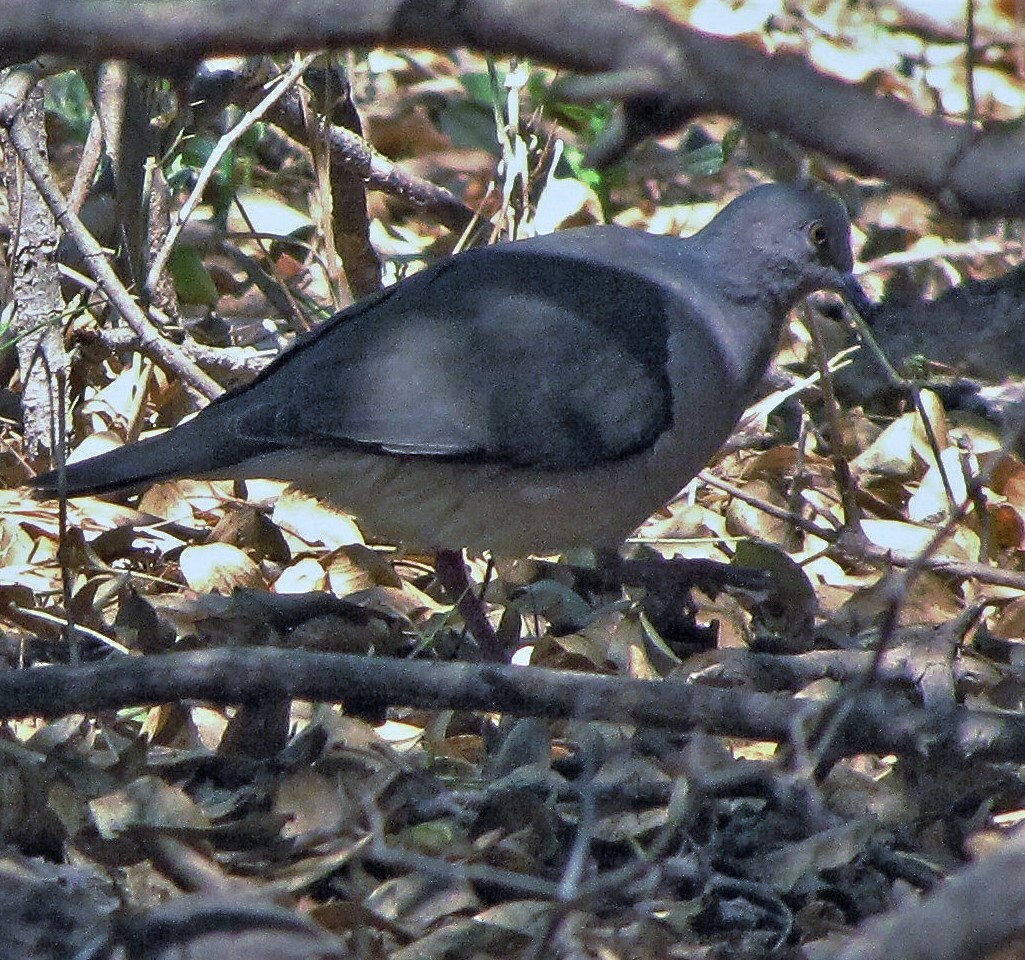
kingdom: Animalia
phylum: Chordata
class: Aves
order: Columbiformes
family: Columbidae
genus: Leptotila
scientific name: Leptotila verreauxi
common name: White-tipped dove
